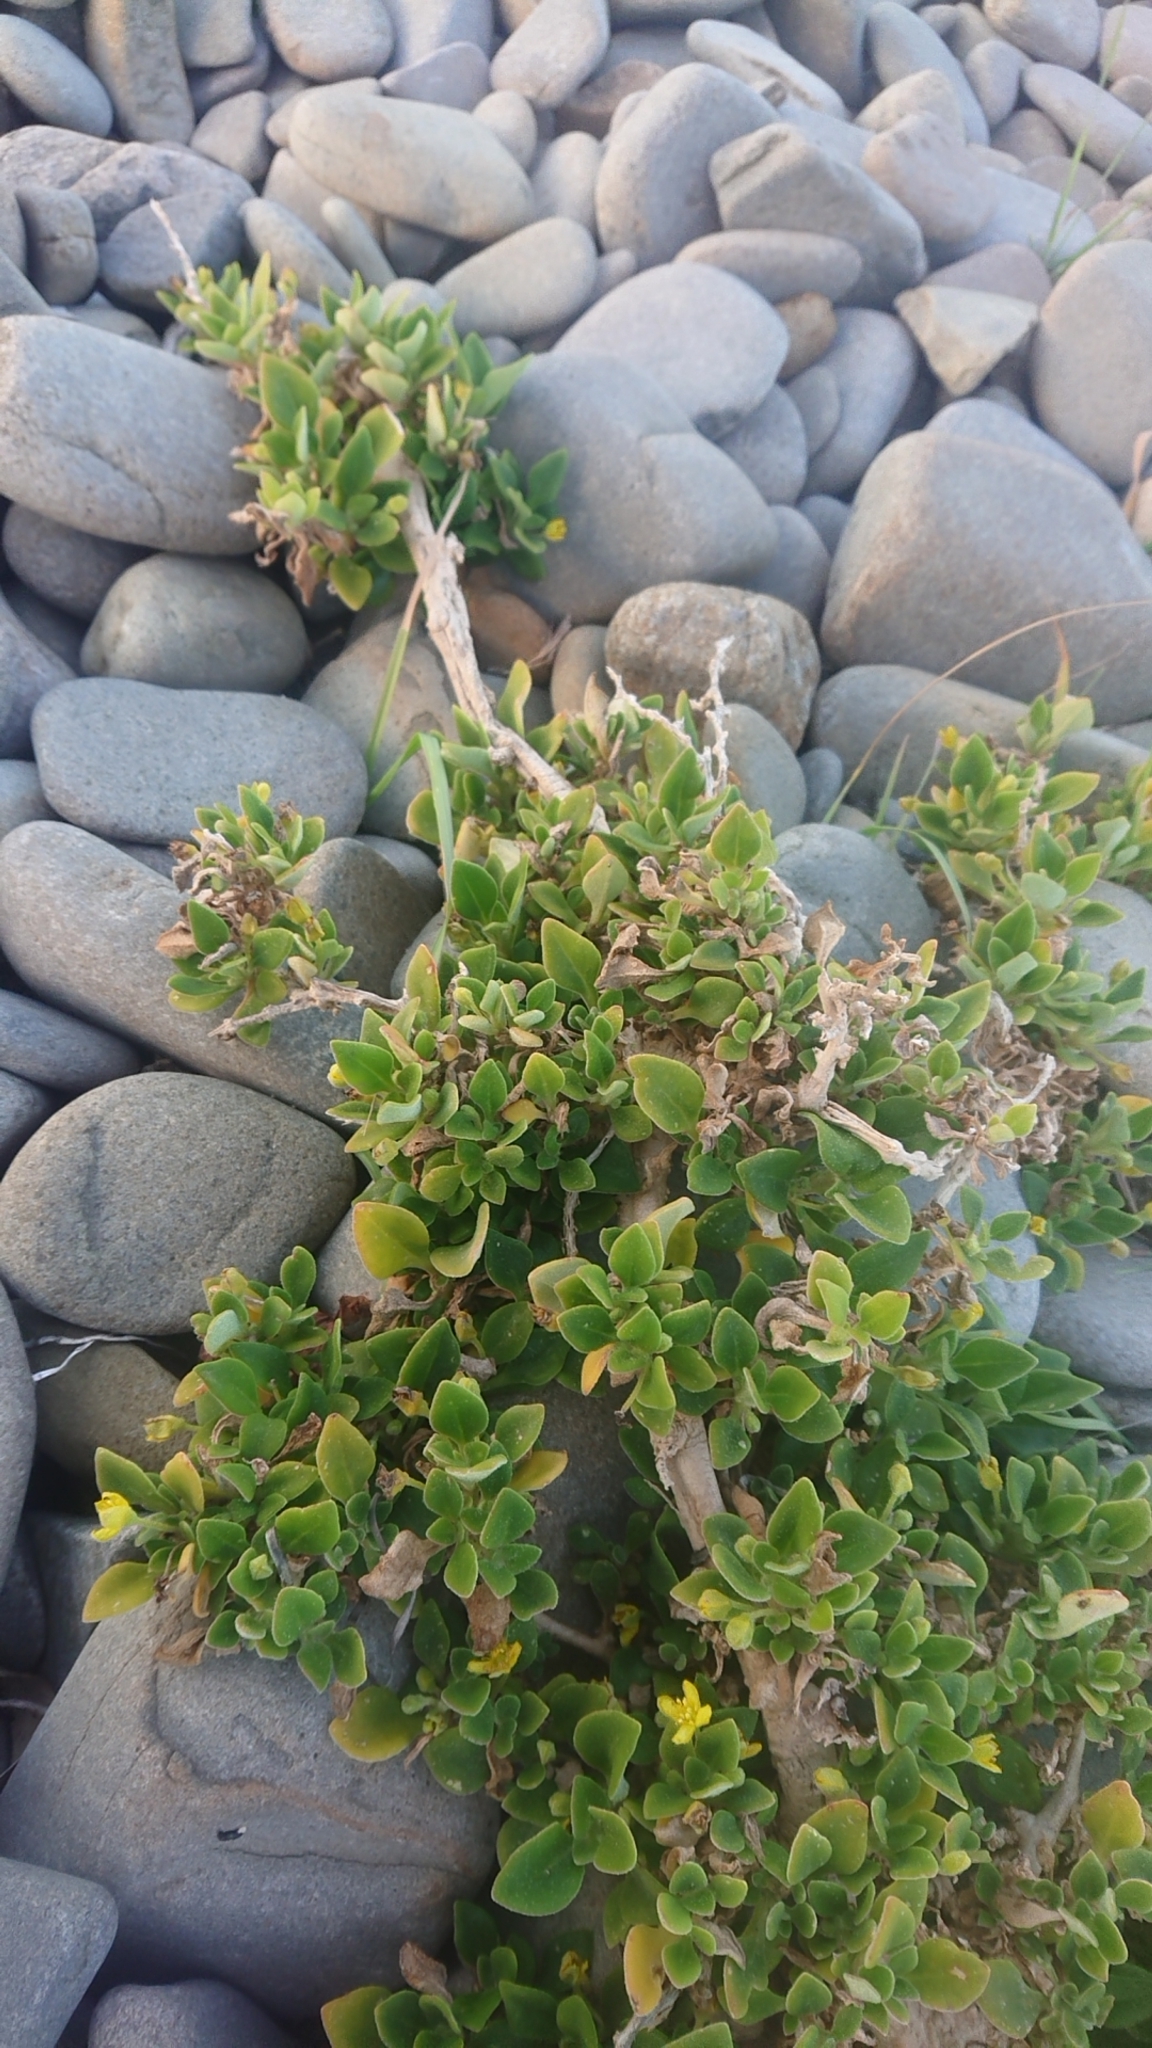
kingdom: Plantae
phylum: Tracheophyta
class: Magnoliopsida
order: Caryophyllales
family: Aizoaceae
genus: Tetragonia
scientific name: Tetragonia implexicoma
